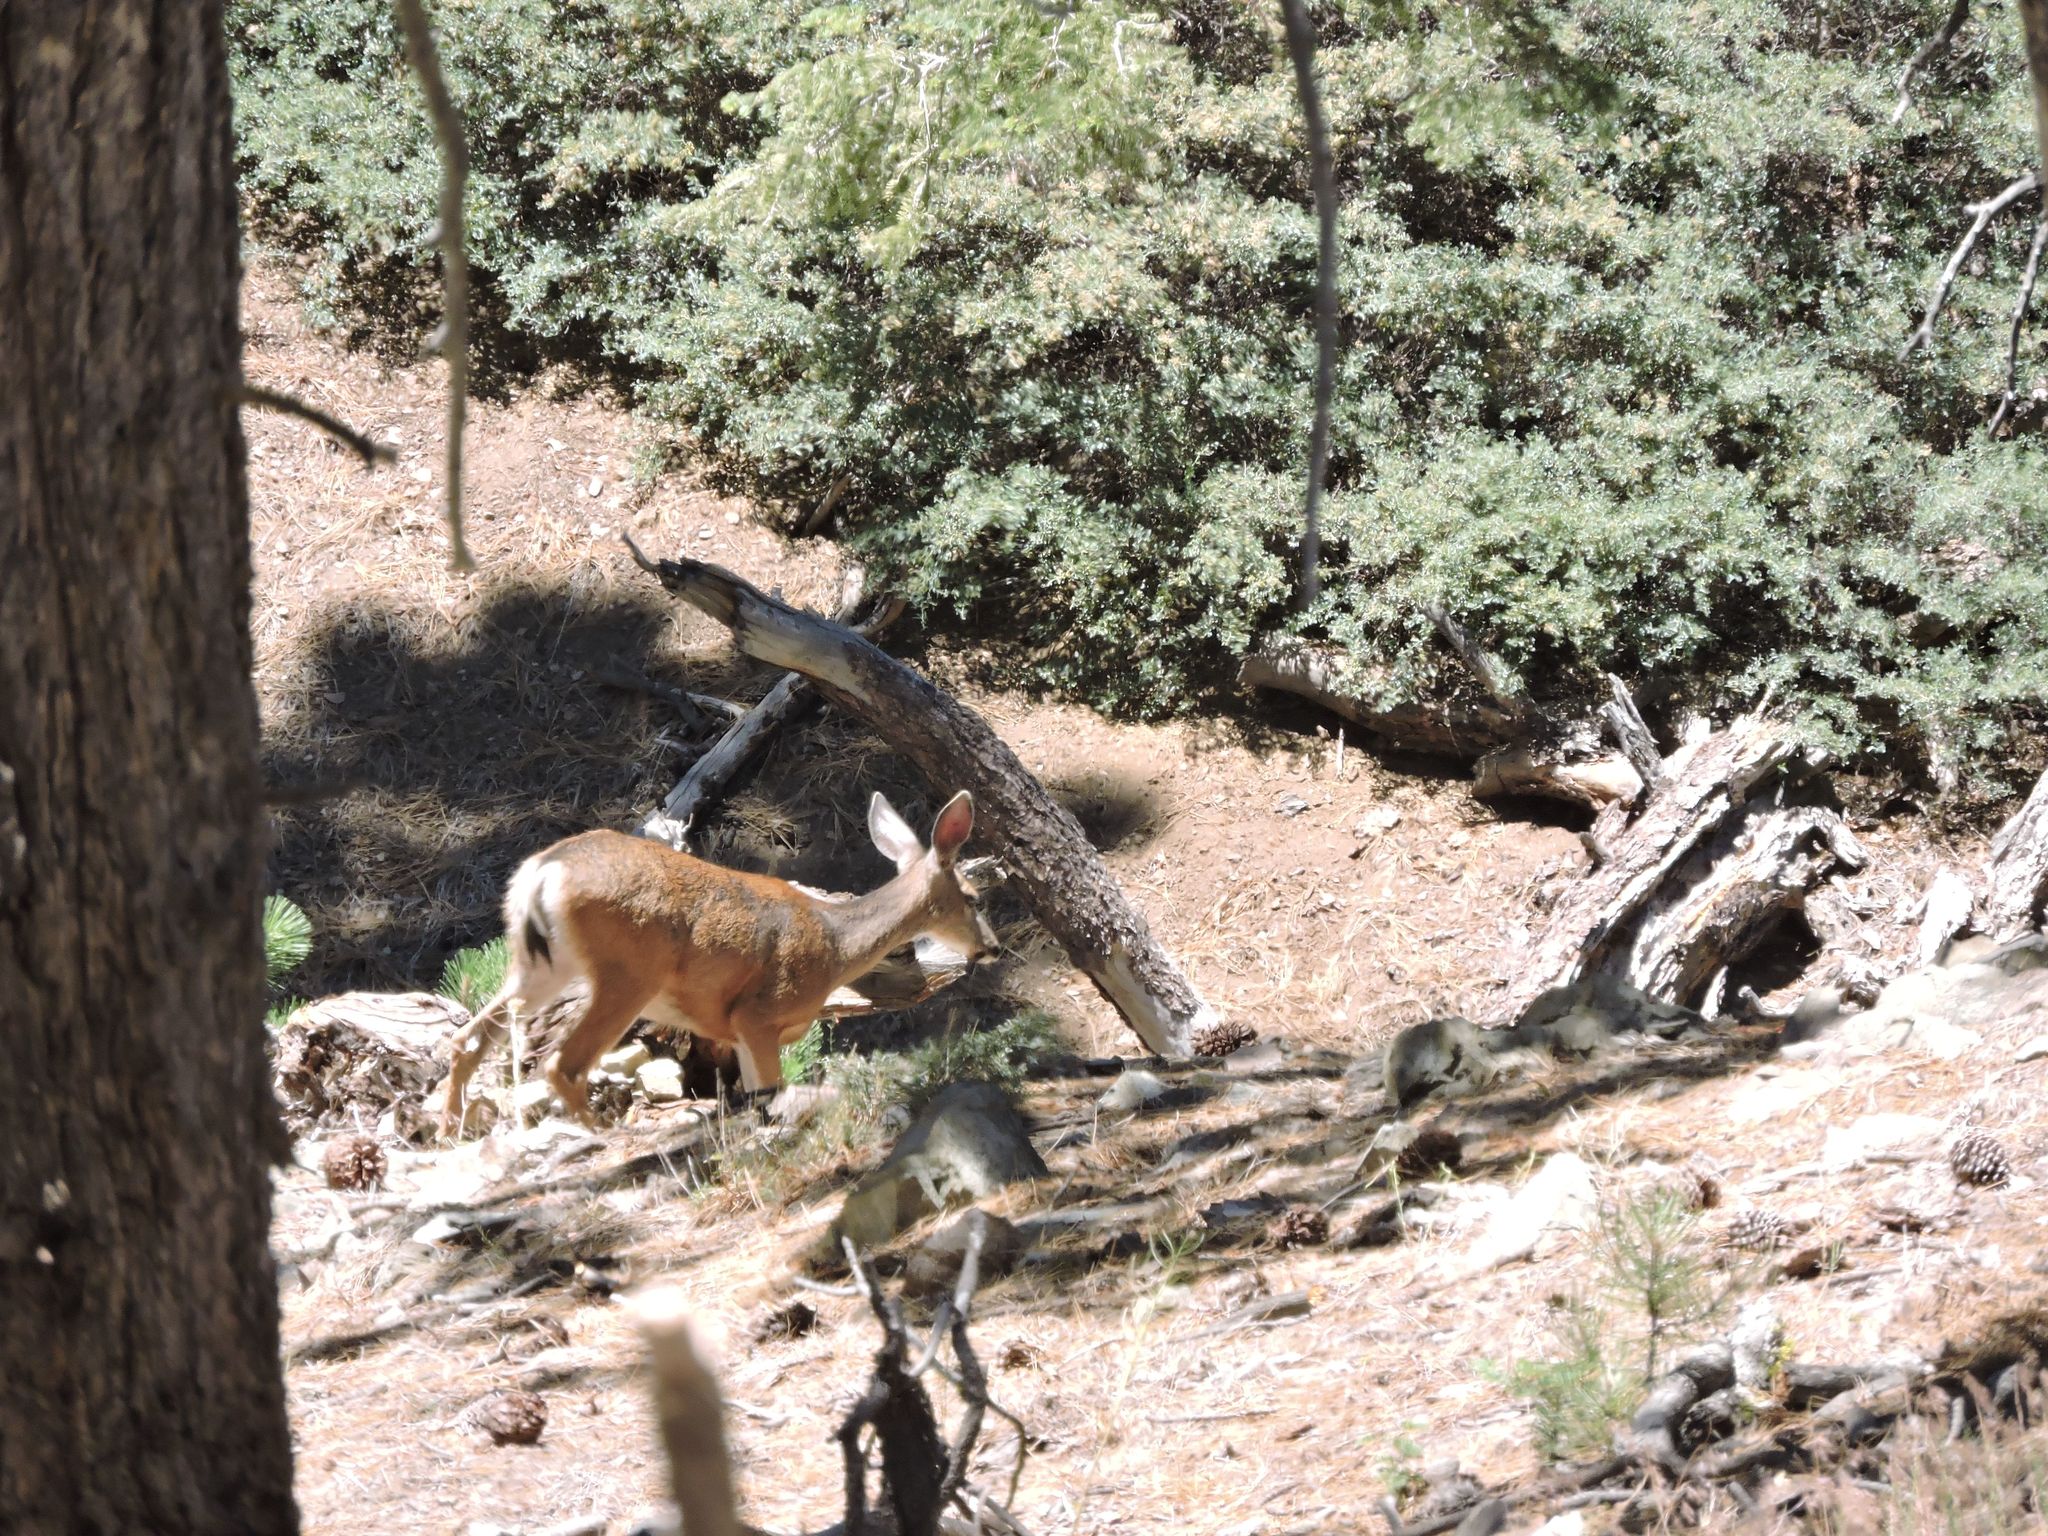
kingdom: Animalia
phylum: Chordata
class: Mammalia
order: Artiodactyla
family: Cervidae
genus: Odocoileus
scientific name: Odocoileus hemionus
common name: Mule deer
